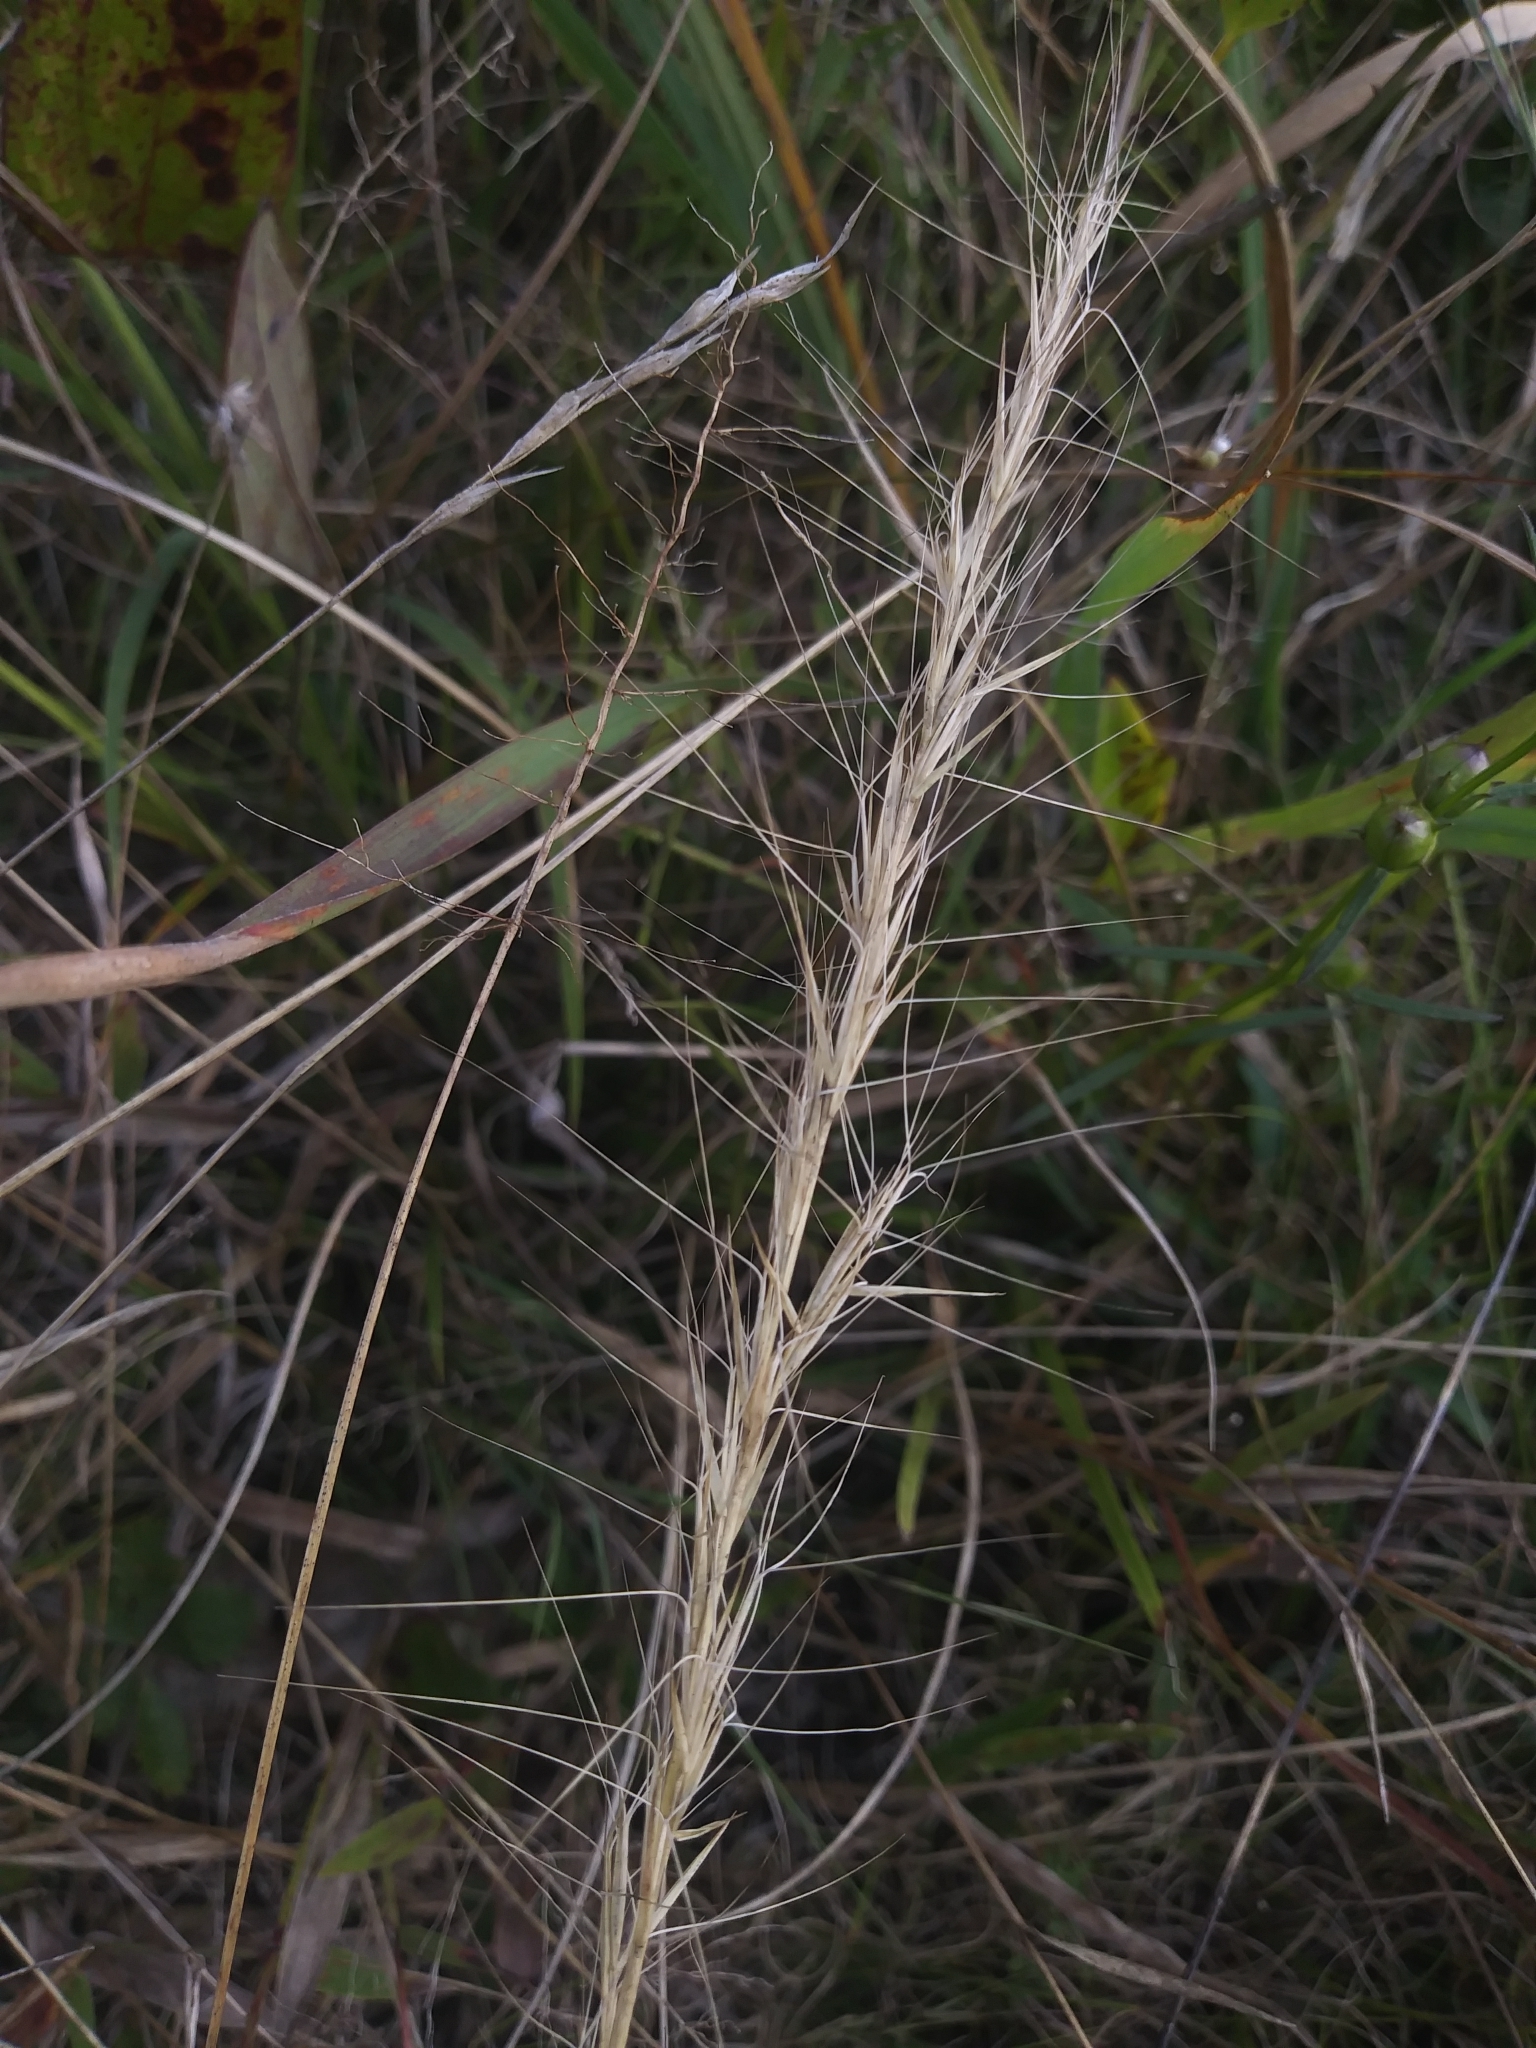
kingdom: Plantae
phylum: Tracheophyta
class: Liliopsida
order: Poales
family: Poaceae
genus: Aristida
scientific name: Aristida purpurascens
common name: Arrow-feather
